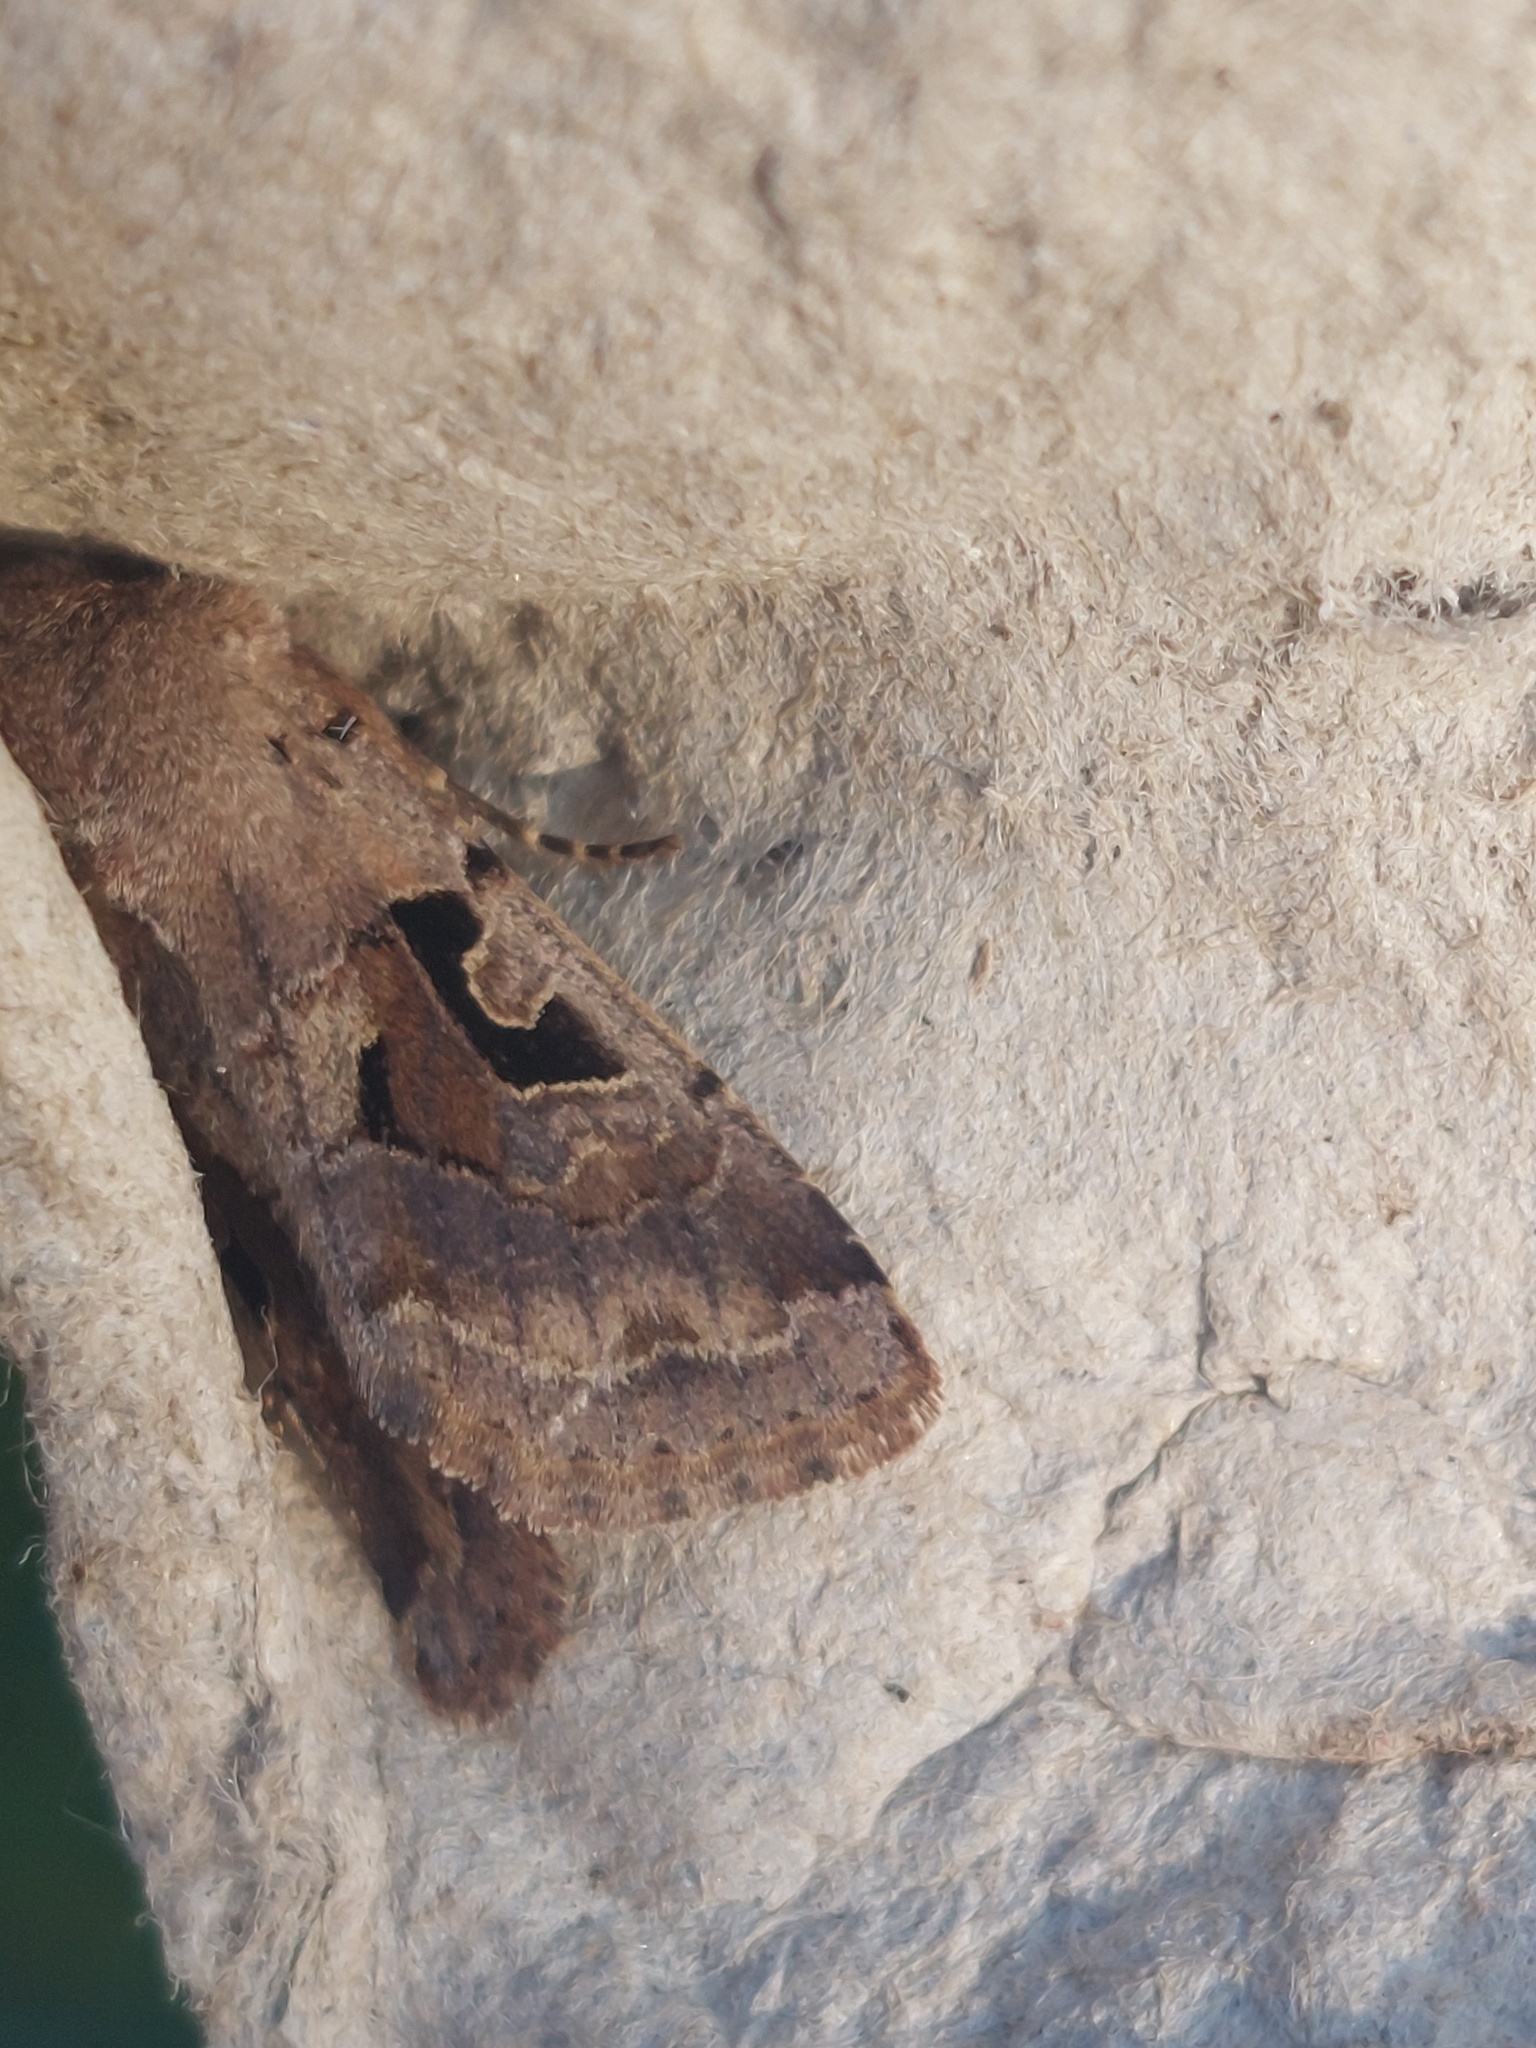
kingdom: Animalia
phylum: Arthropoda
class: Insecta
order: Lepidoptera
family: Noctuidae
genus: Orthosia
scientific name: Orthosia gothica
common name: Hebrew character
